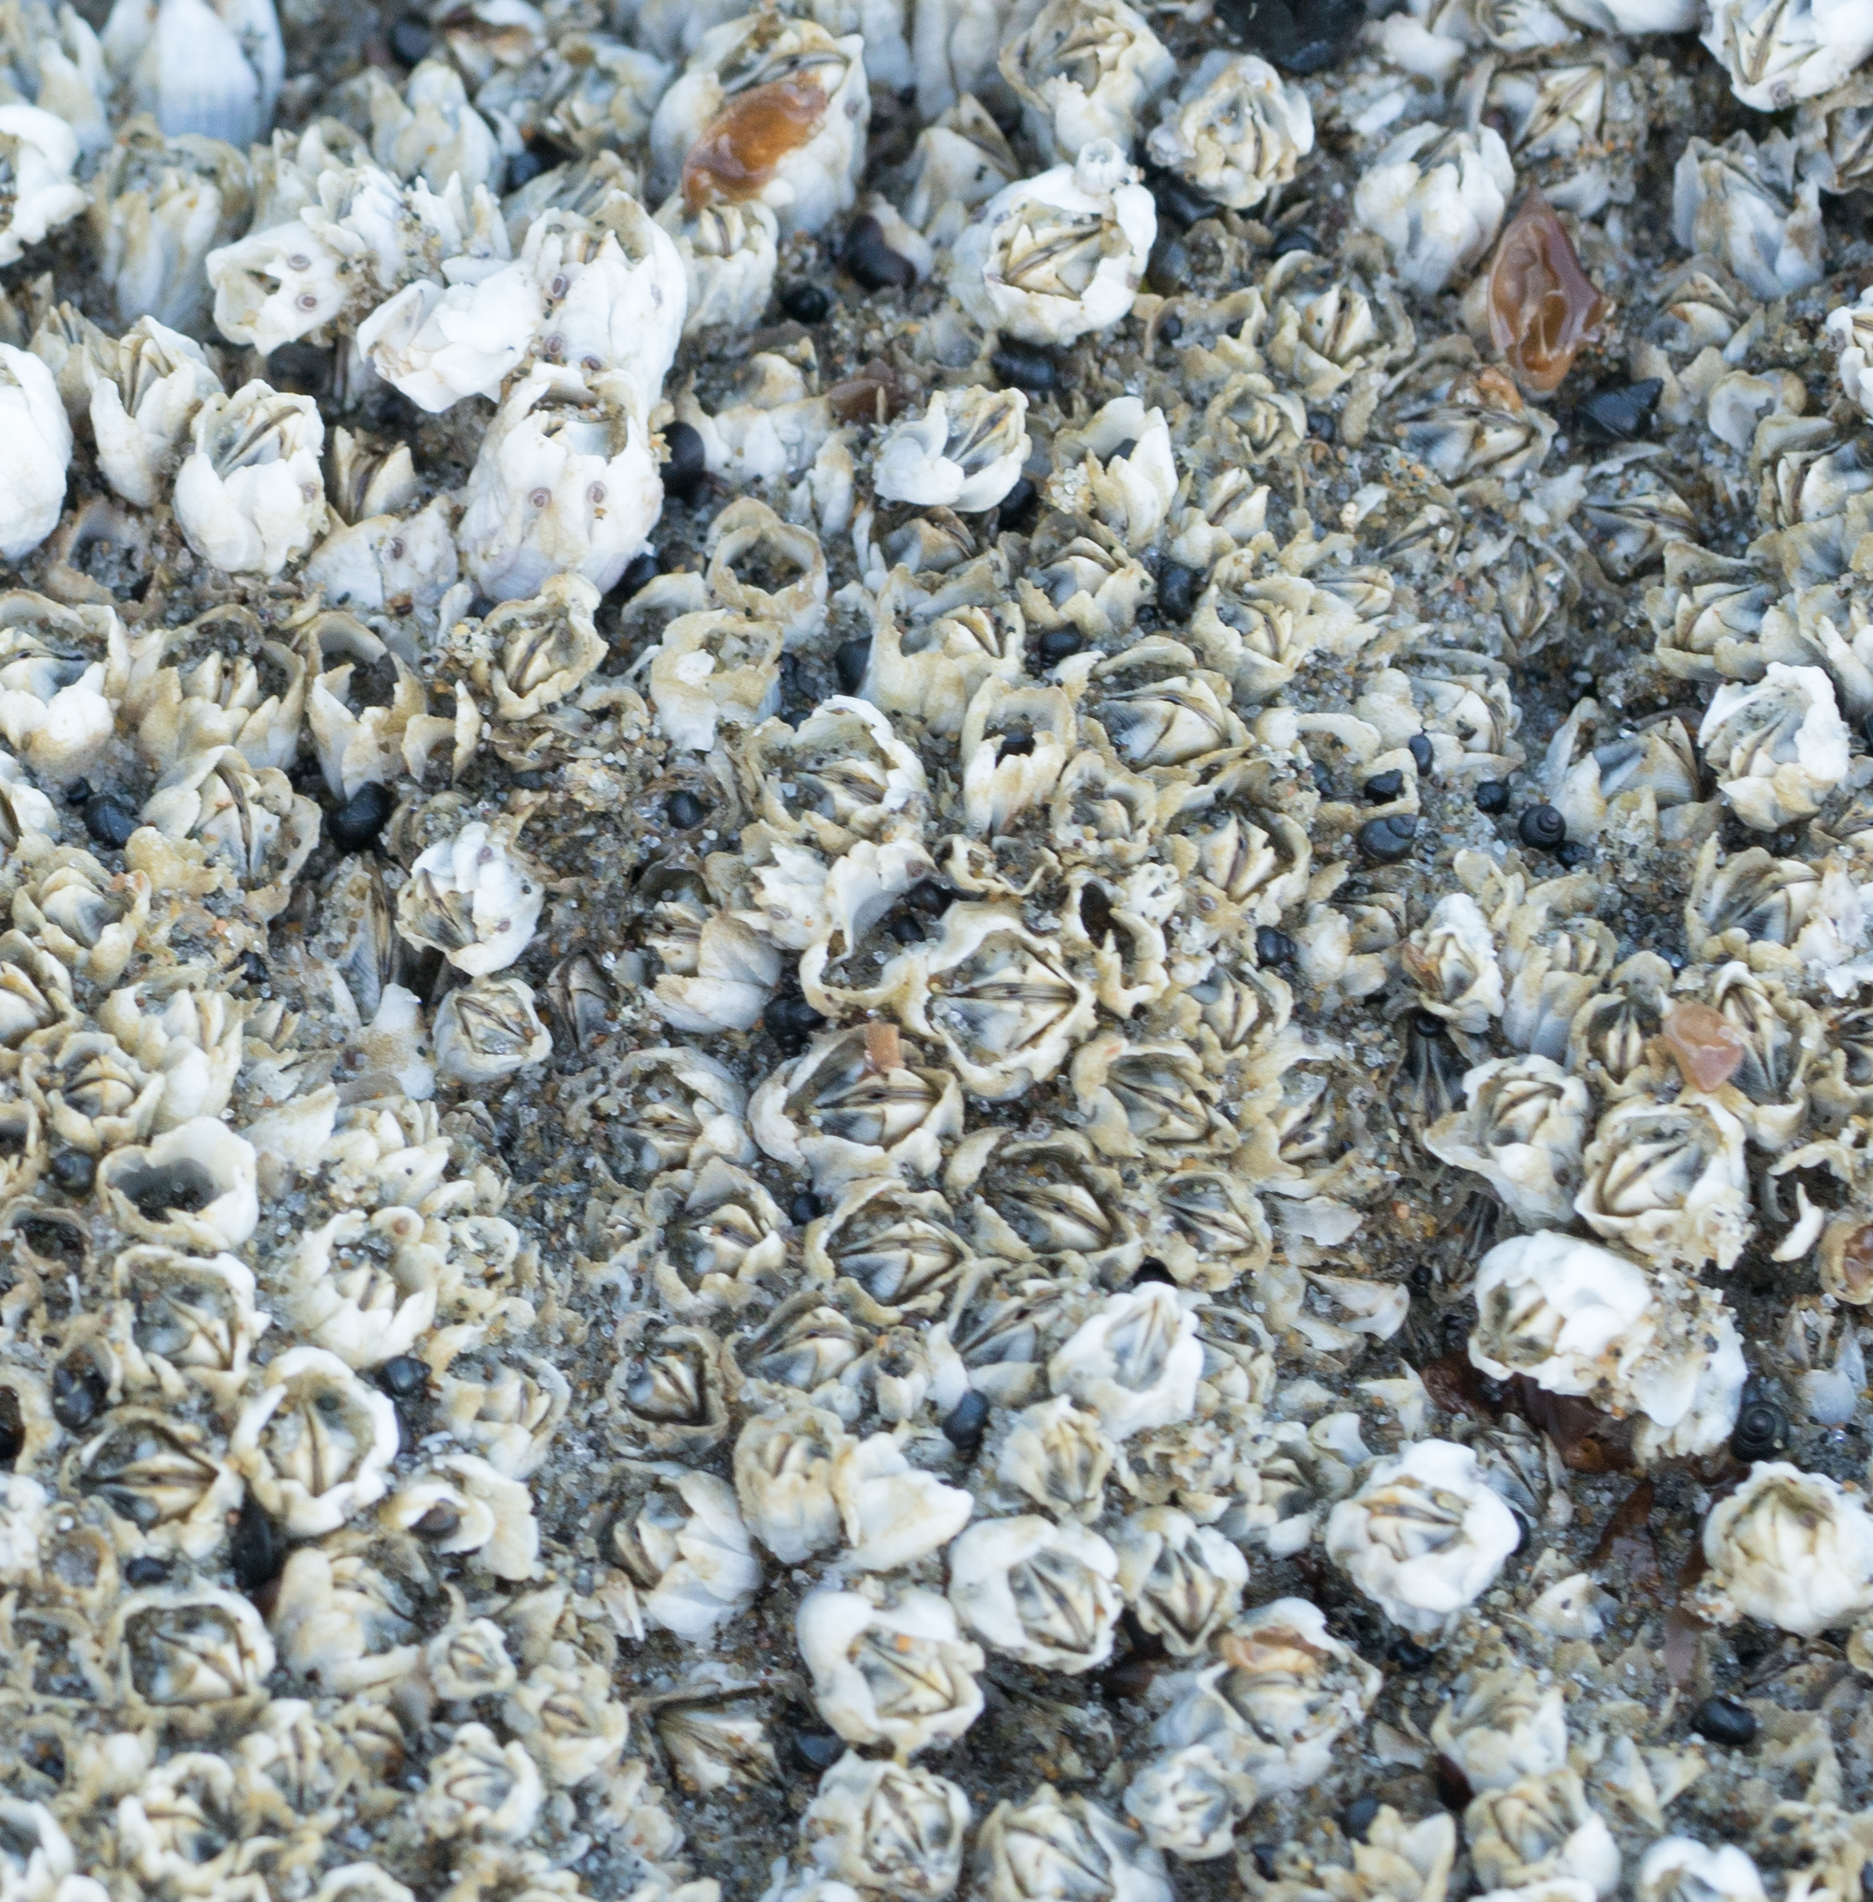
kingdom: Animalia
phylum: Arthropoda
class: Maxillopoda
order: Sessilia
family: Balanidae
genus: Balanus
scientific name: Balanus glandula
